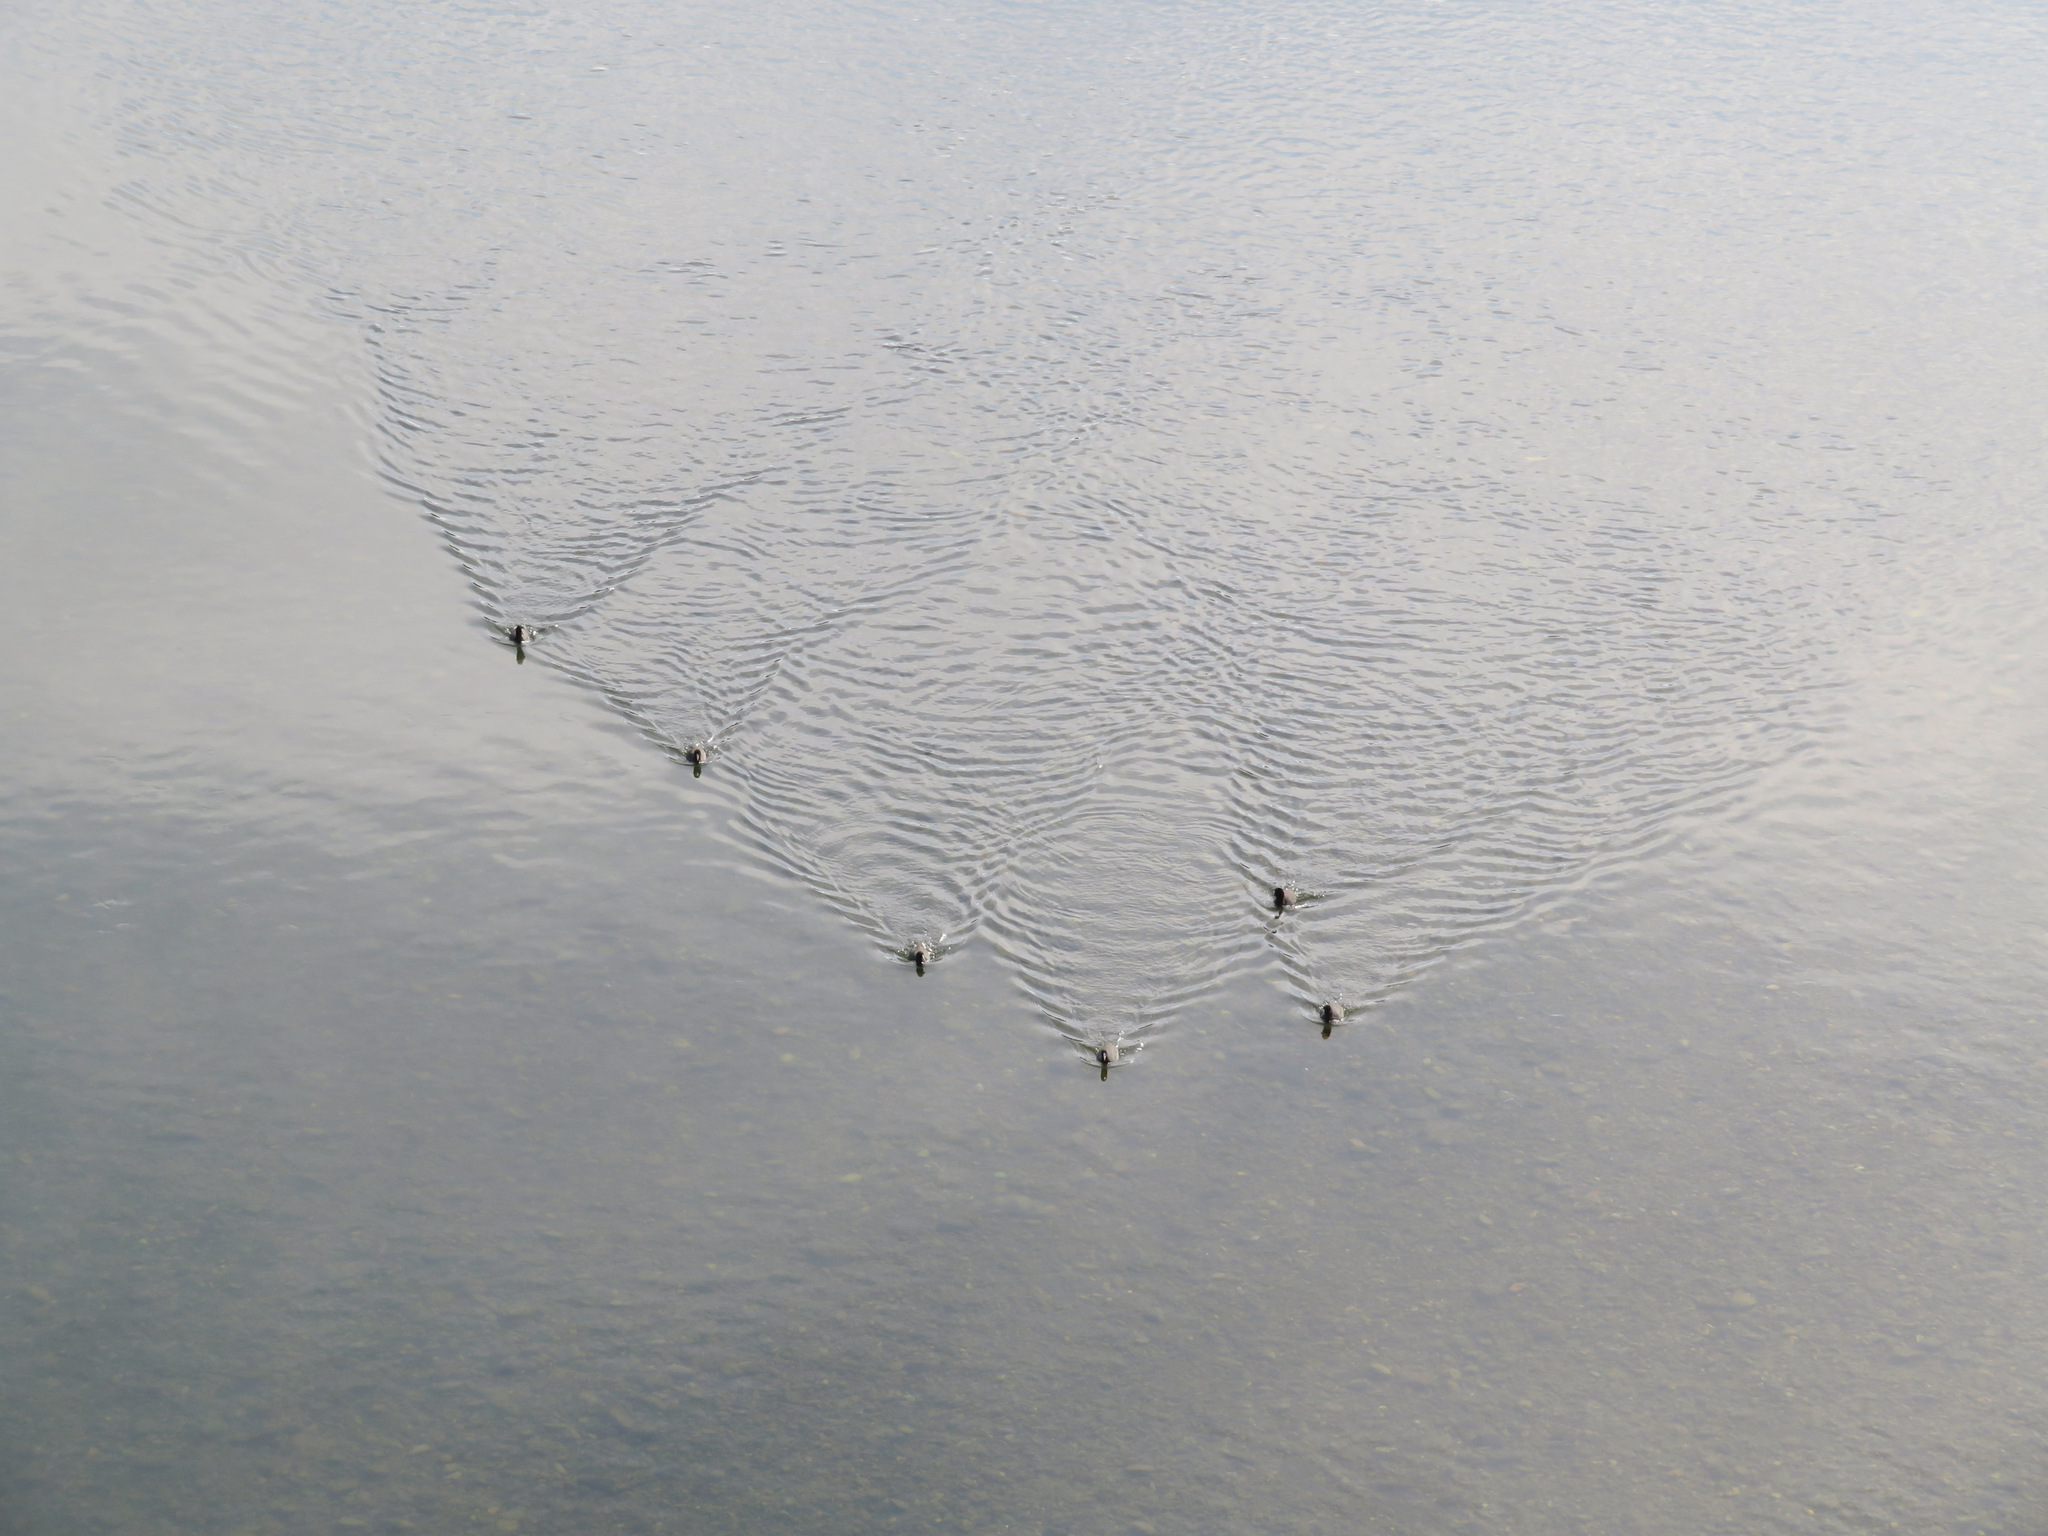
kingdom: Animalia
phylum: Chordata
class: Aves
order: Gruiformes
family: Rallidae
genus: Fulica
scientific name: Fulica atra
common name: Eurasian coot
